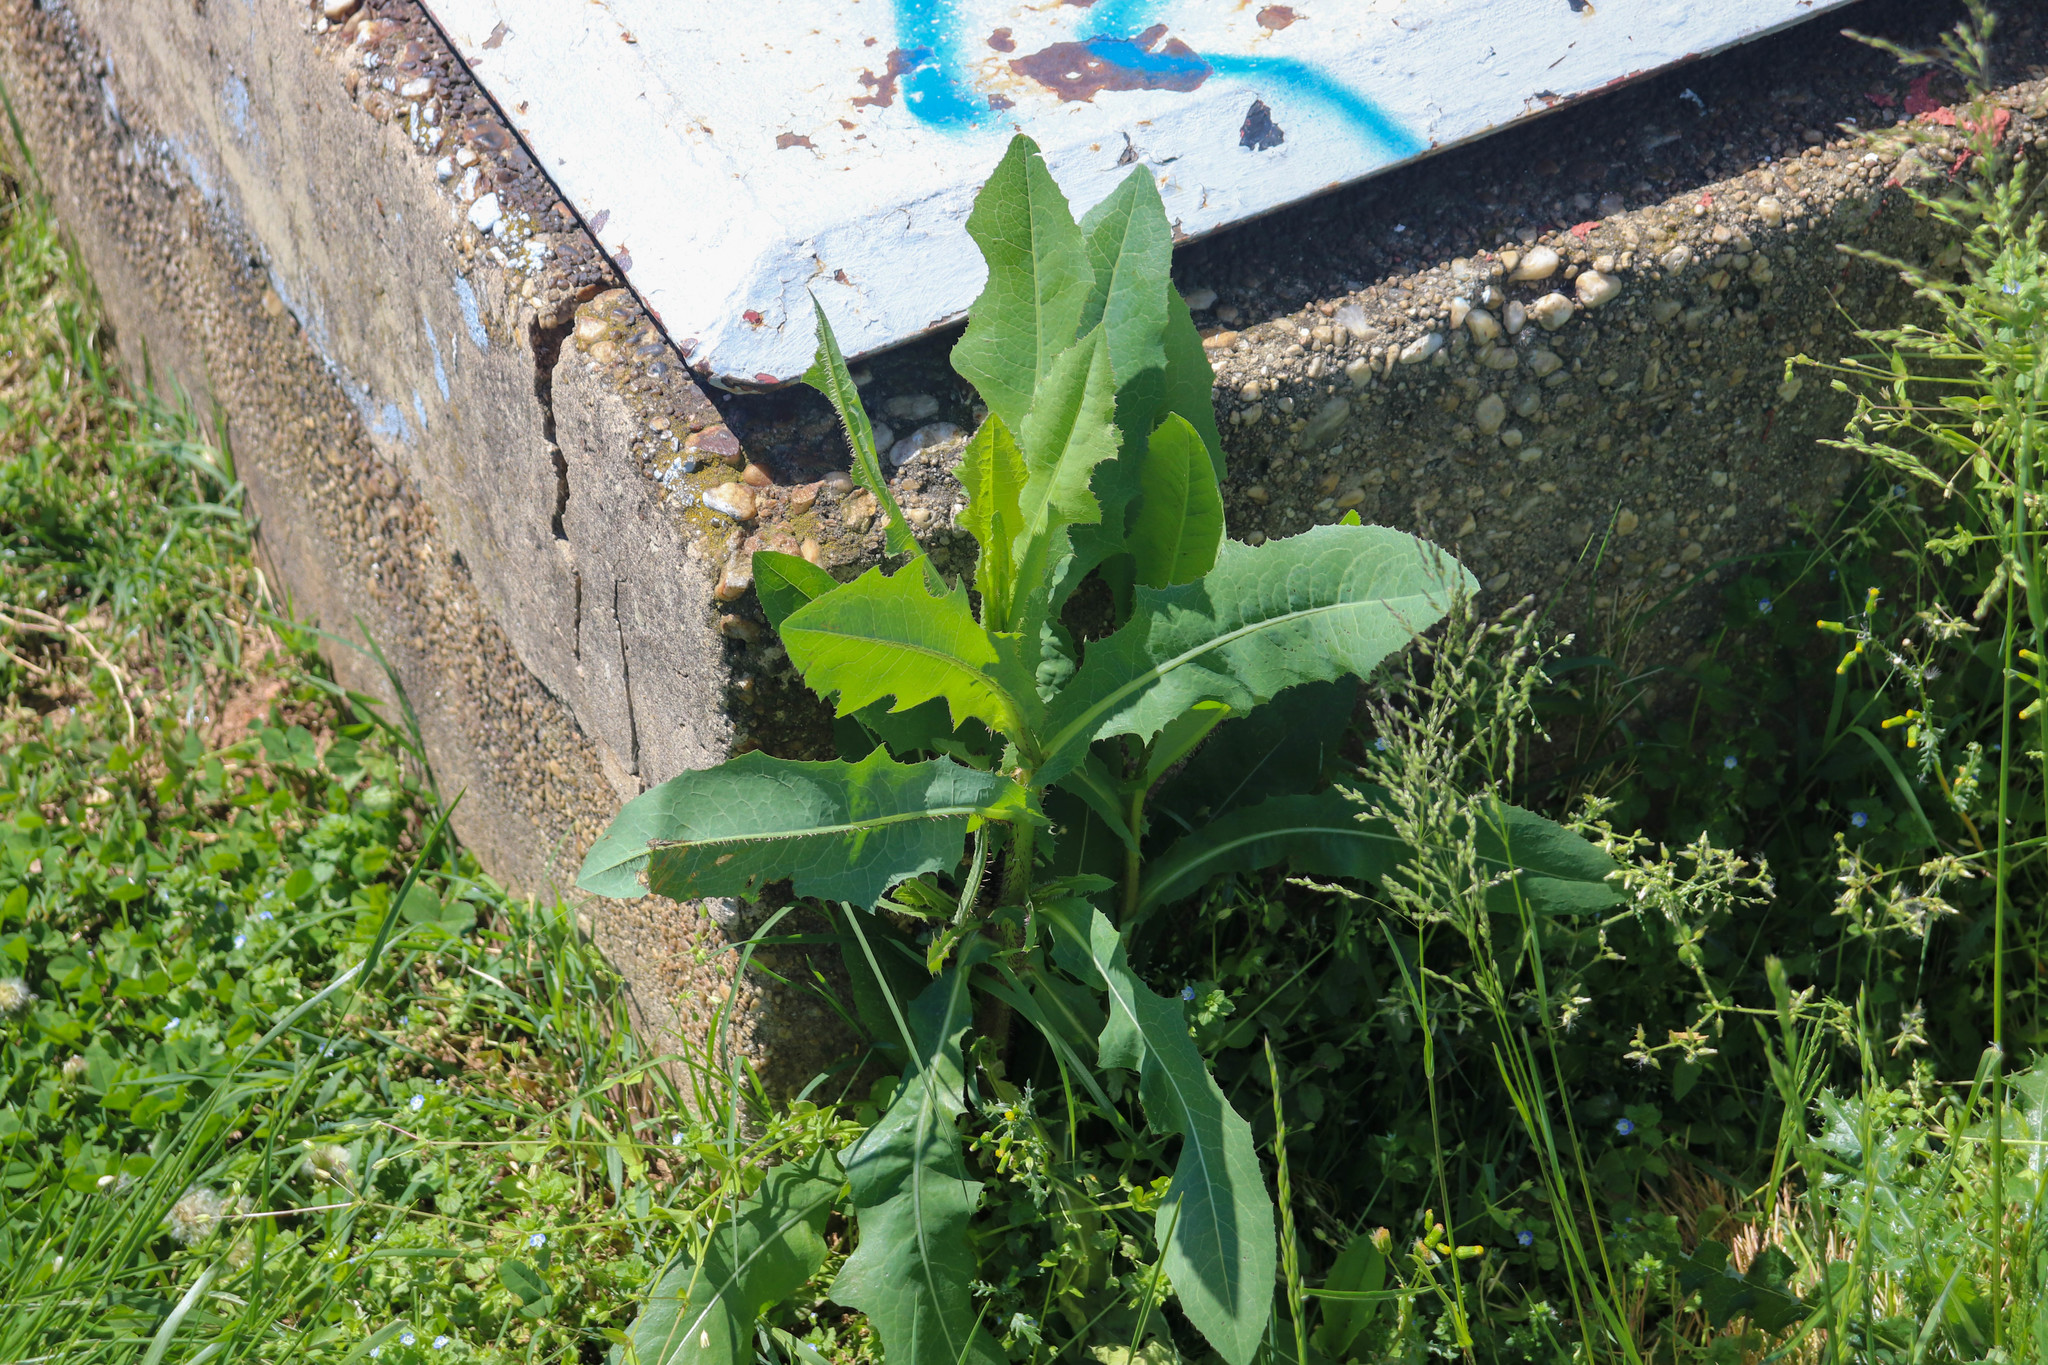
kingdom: Plantae
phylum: Tracheophyta
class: Magnoliopsida
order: Asterales
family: Asteraceae
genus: Lactuca
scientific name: Lactuca serriola
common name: Prickly lettuce
